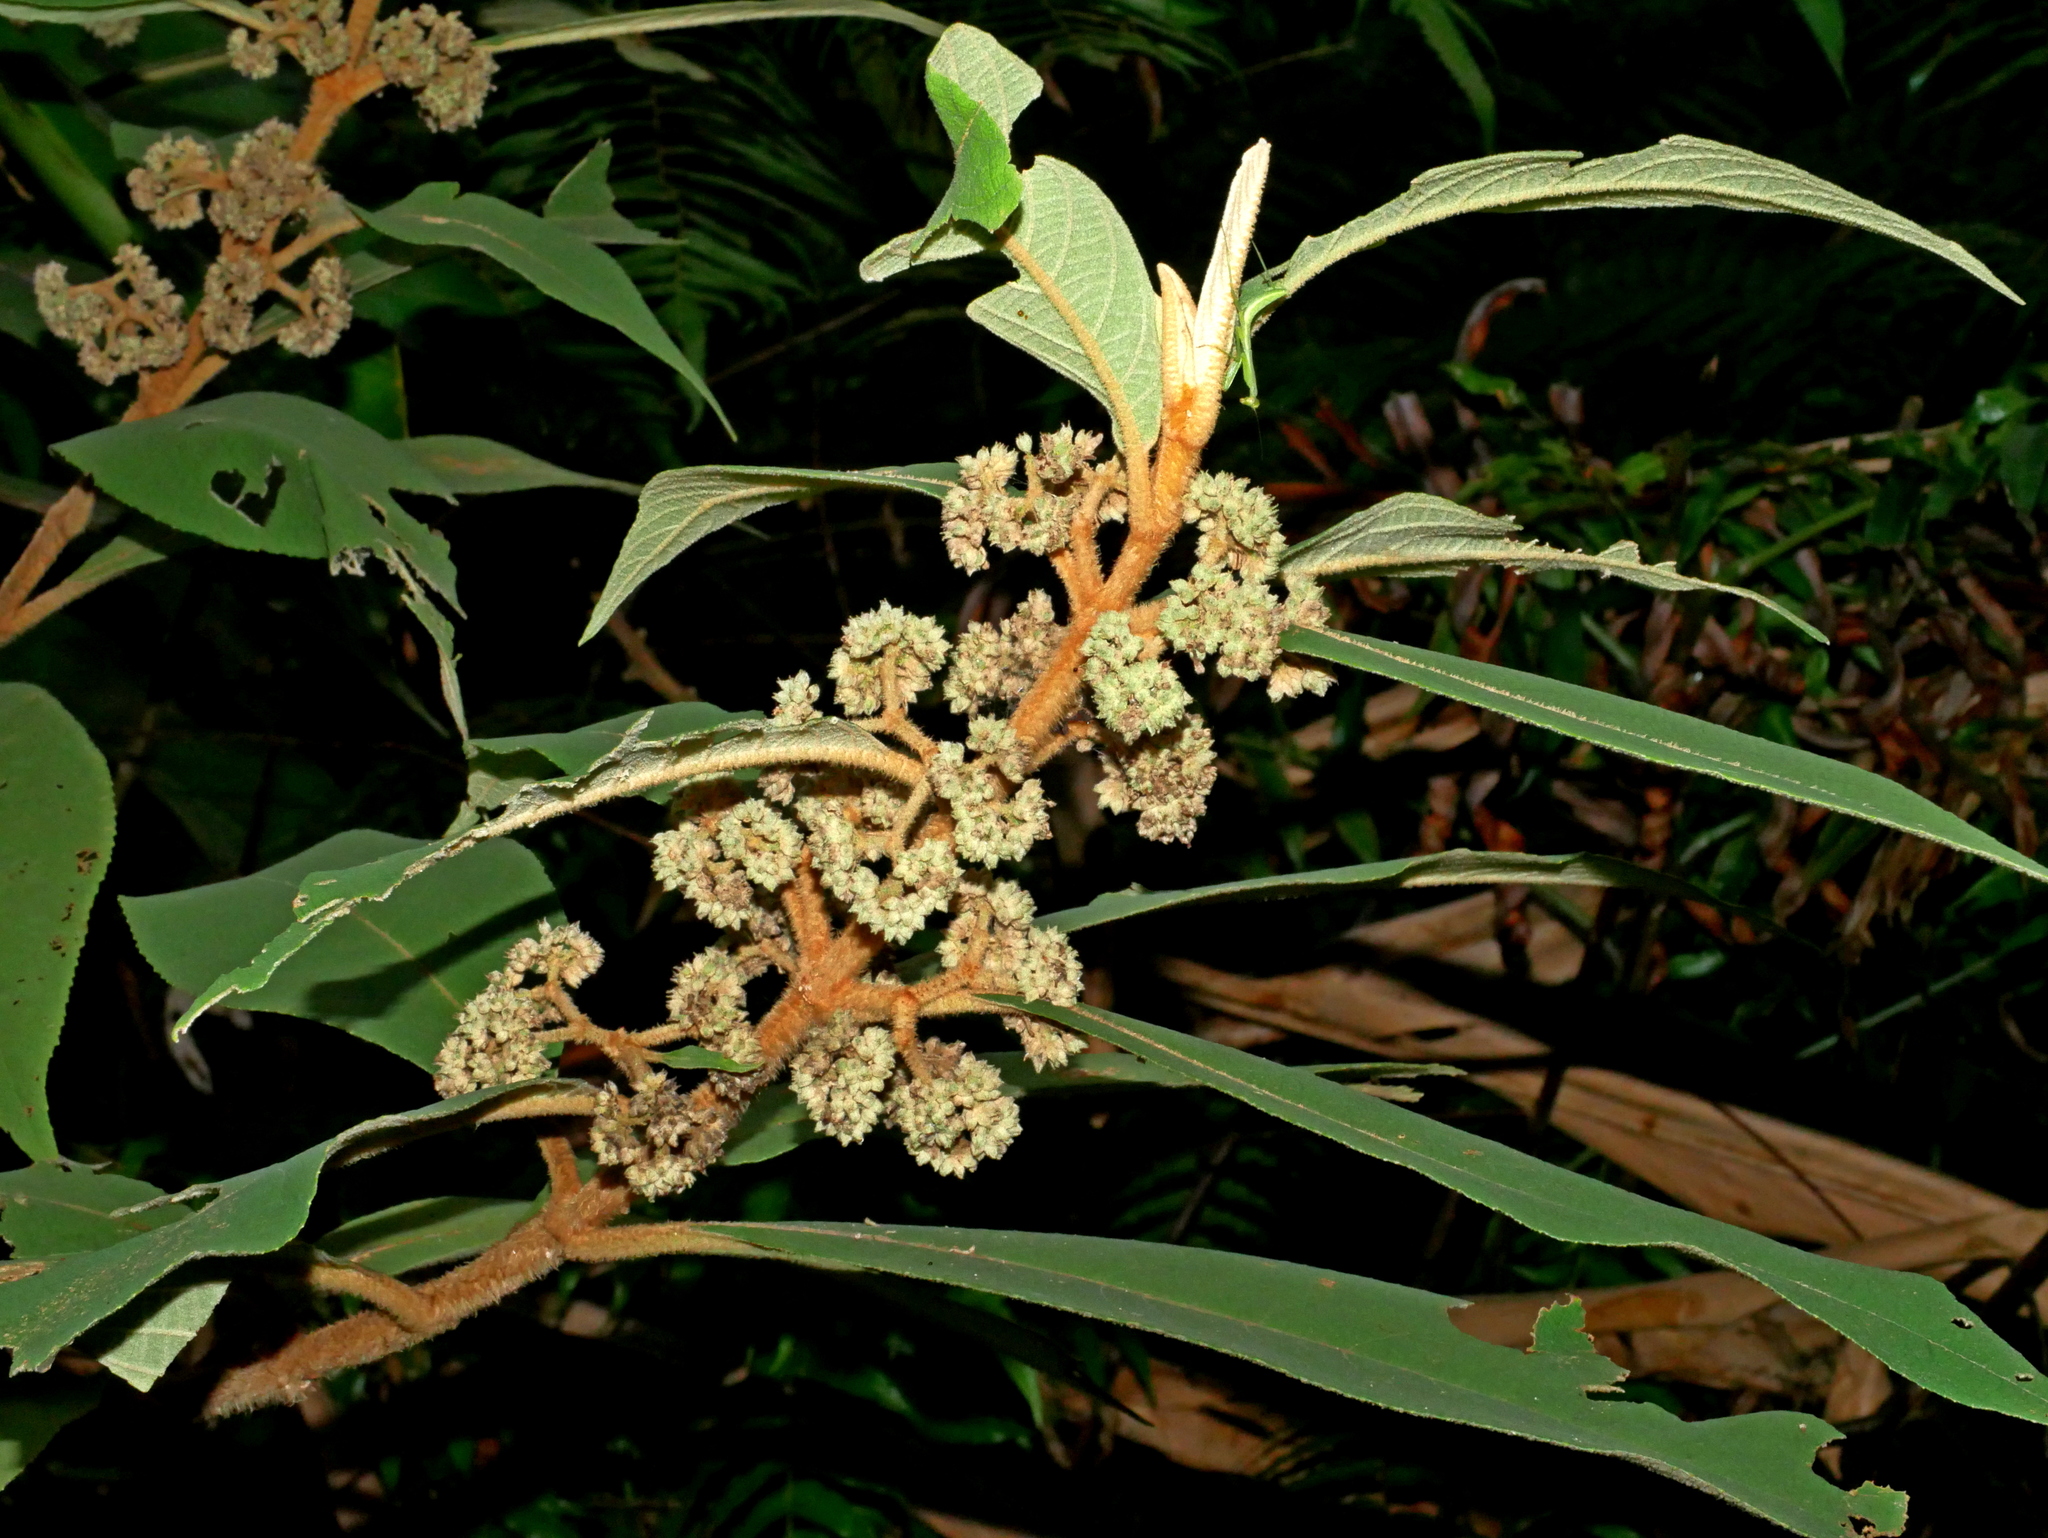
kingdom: Plantae
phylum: Tracheophyta
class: Magnoliopsida
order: Lamiales
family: Lamiaceae
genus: Callicarpa
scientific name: Callicarpa kochiana
